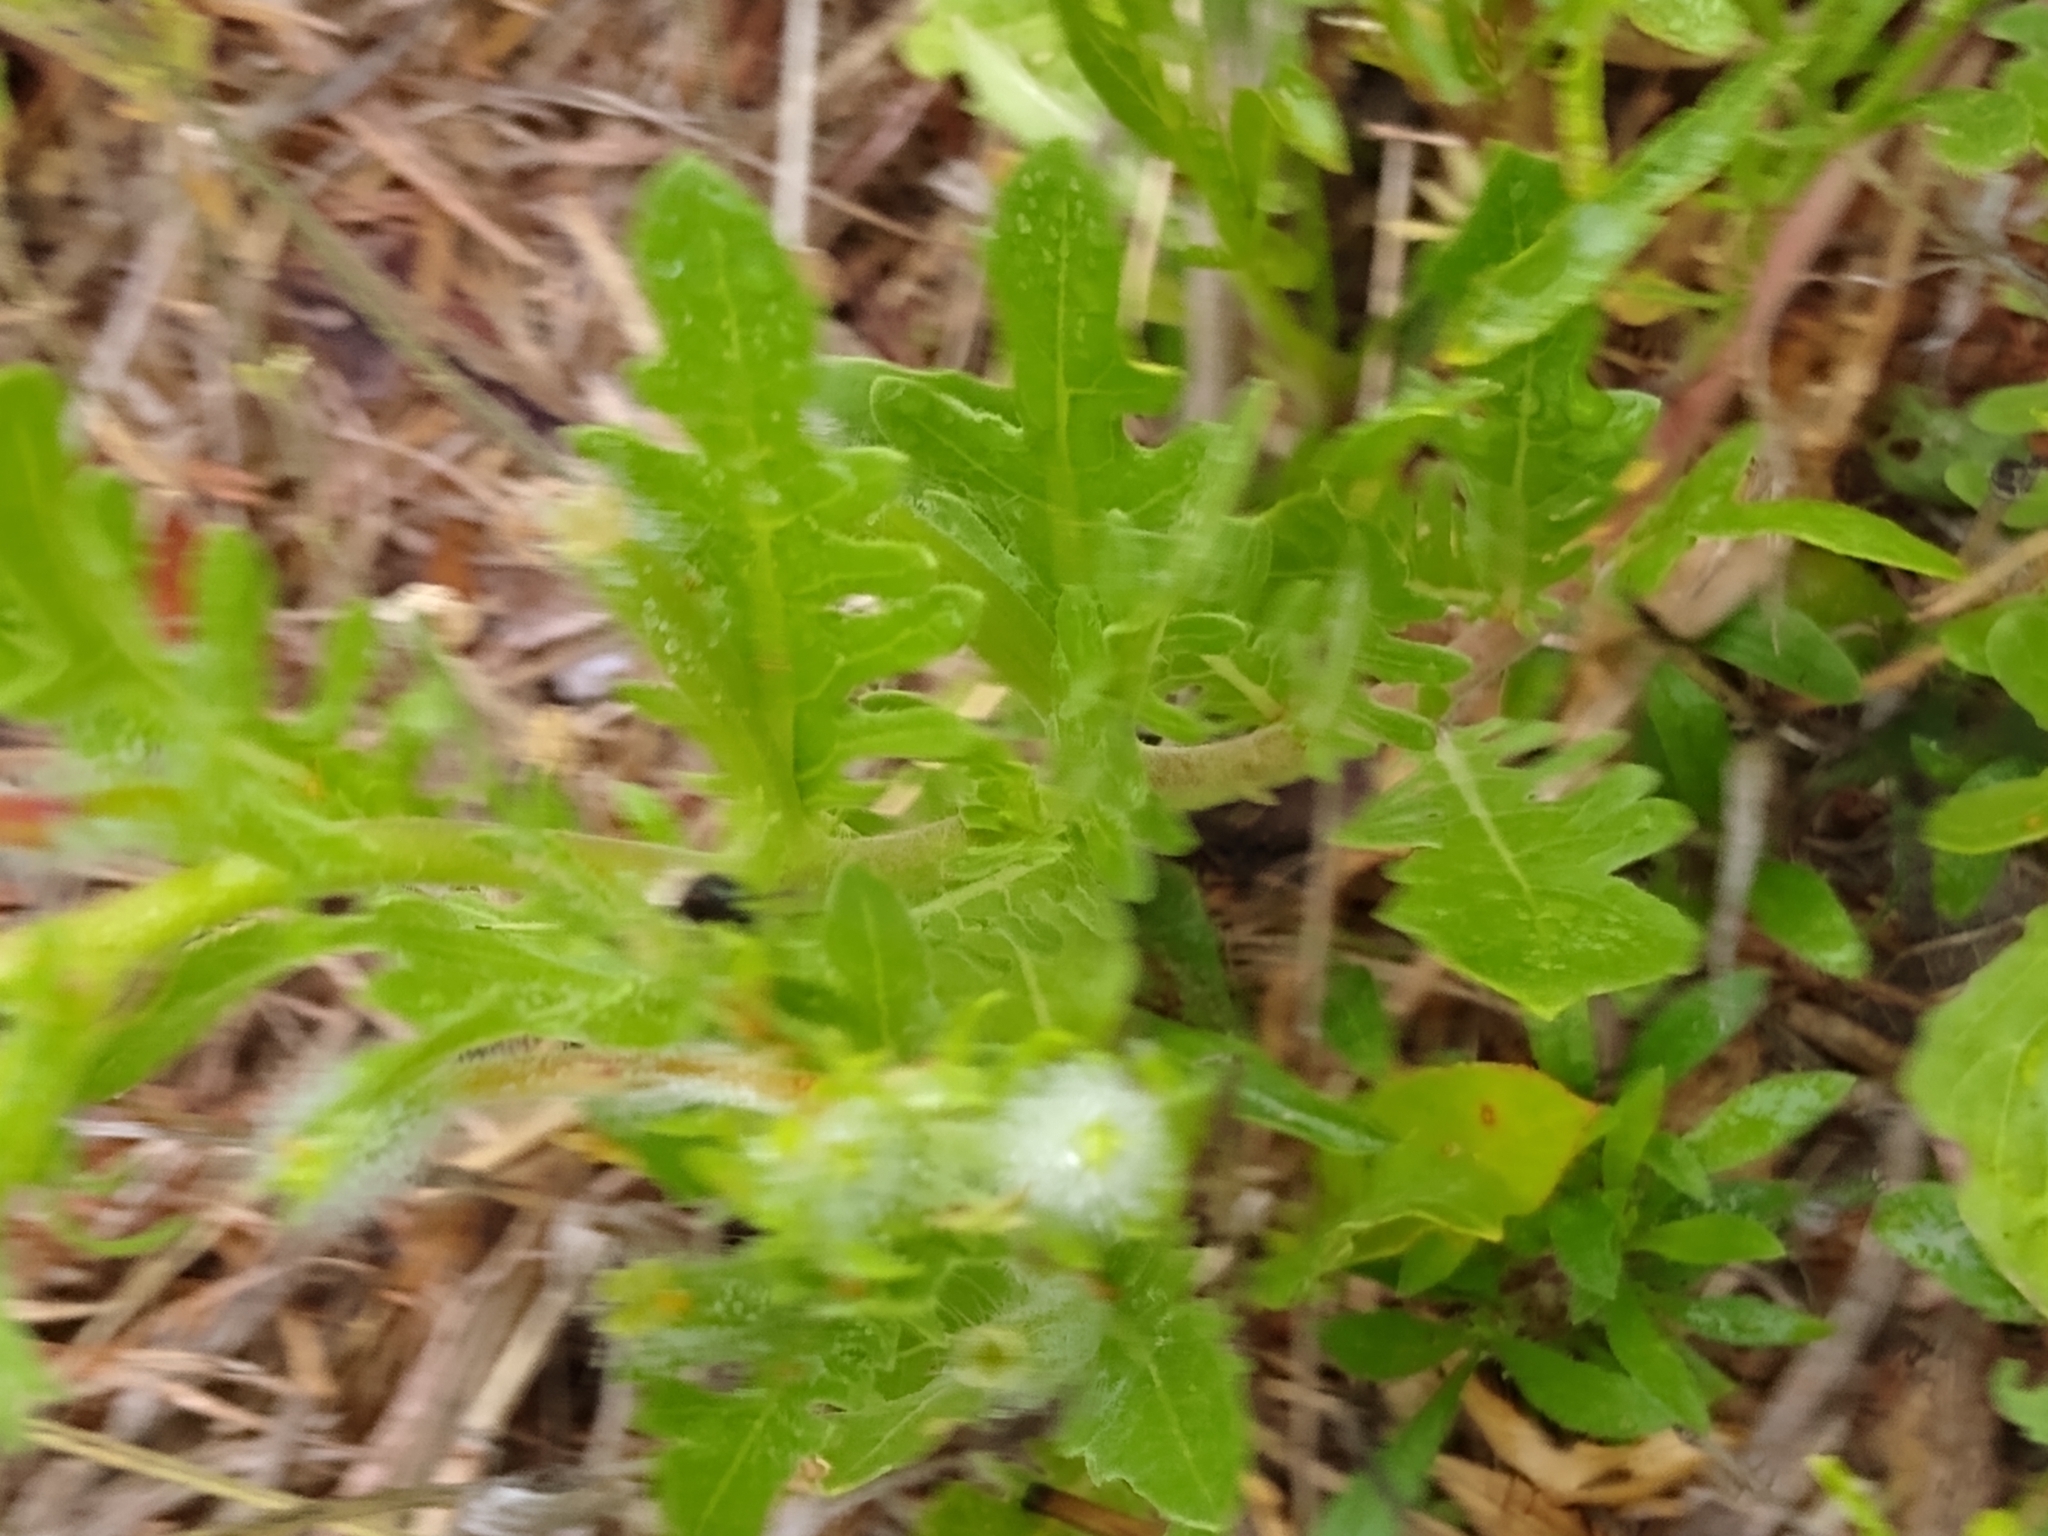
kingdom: Plantae
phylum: Tracheophyta
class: Magnoliopsida
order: Myrtales
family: Onagraceae
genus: Oenothera
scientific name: Oenothera laciniata
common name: Cut-leaved evening-primrose
